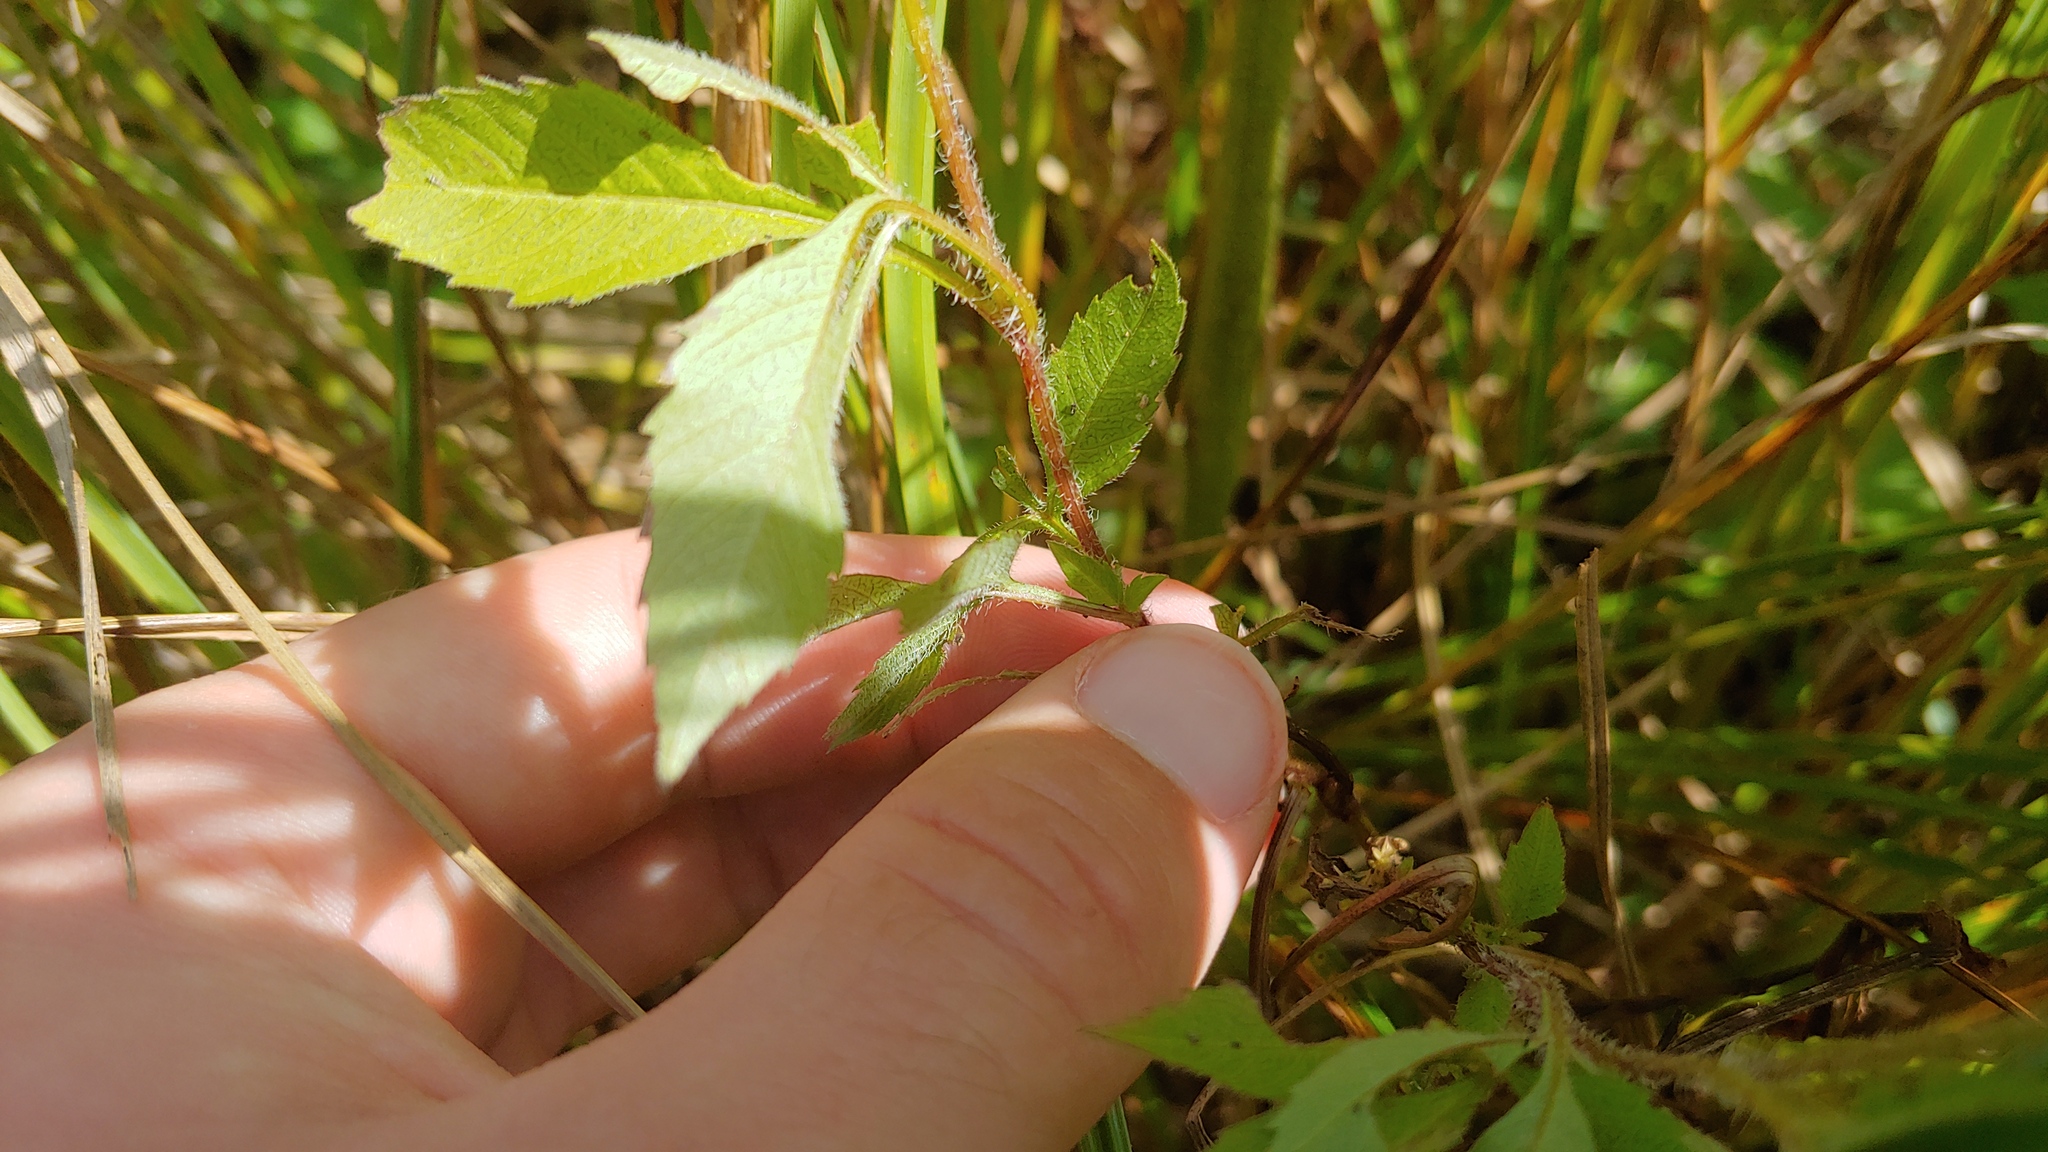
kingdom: Plantae
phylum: Tracheophyta
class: Magnoliopsida
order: Asterales
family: Asteraceae
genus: Bidens
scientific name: Bidens frondosa
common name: Beggarticks
